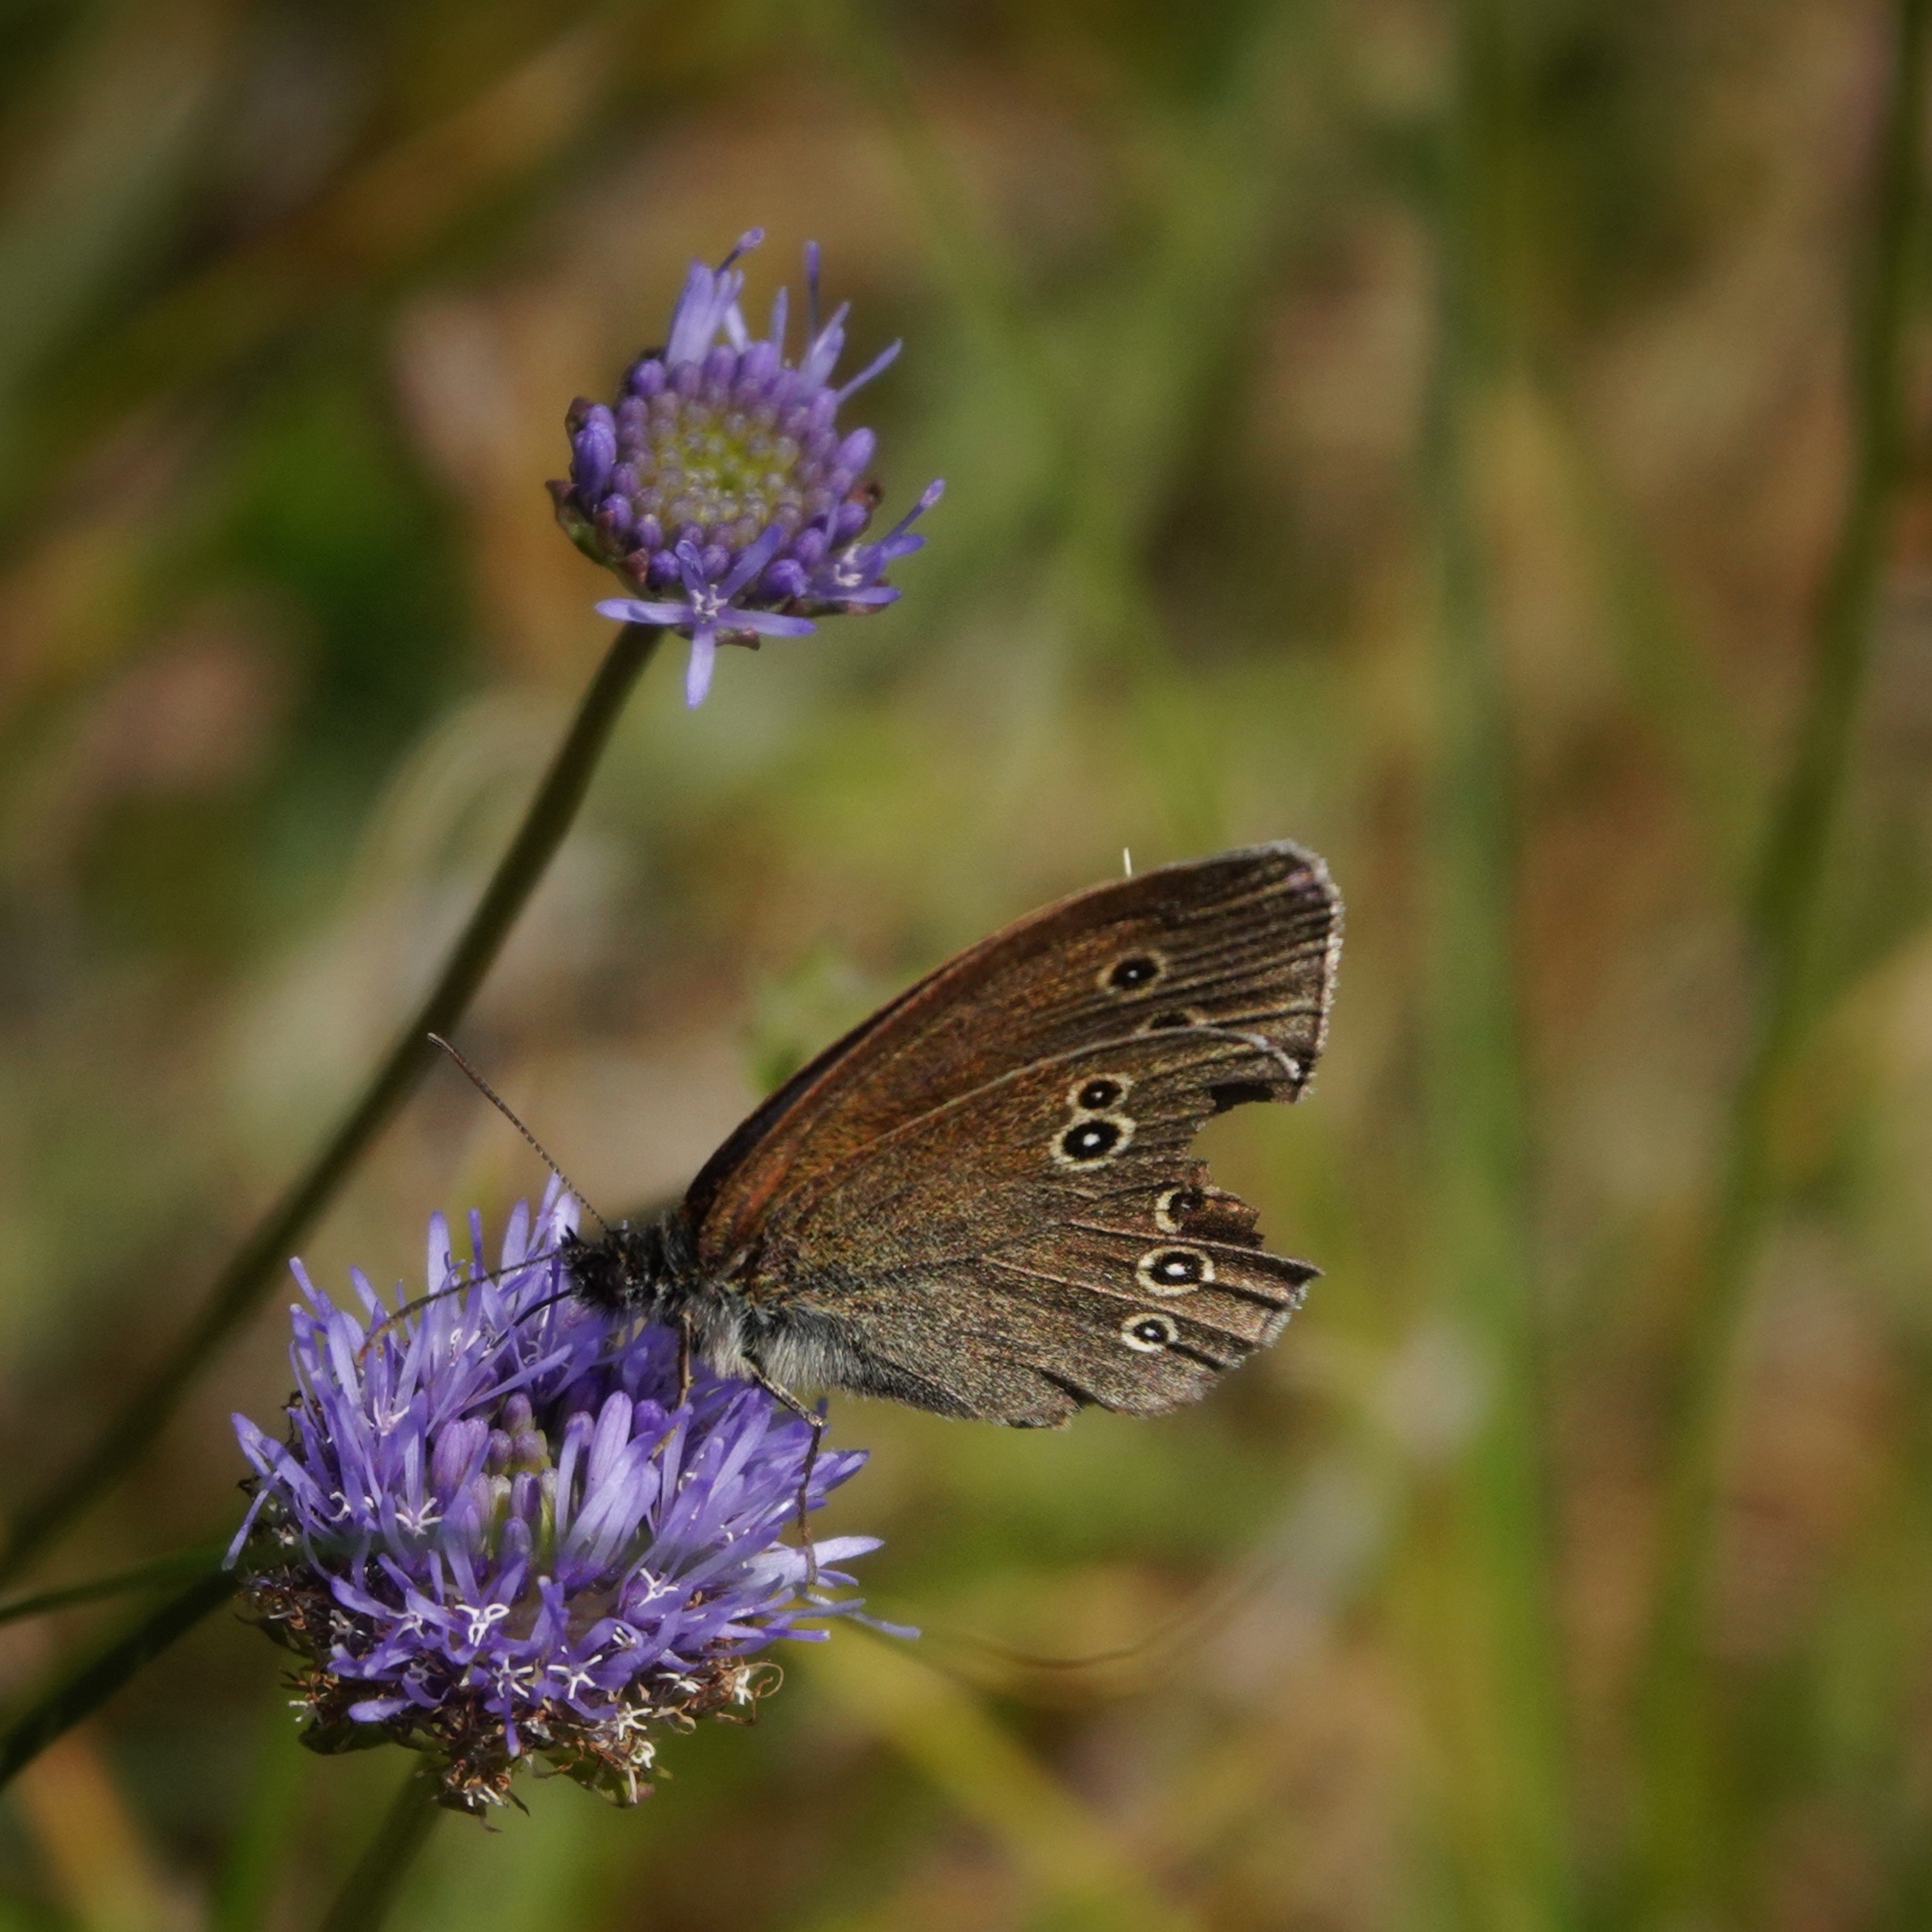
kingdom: Animalia
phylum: Arthropoda
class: Insecta
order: Lepidoptera
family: Nymphalidae
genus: Aphantopus
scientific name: Aphantopus hyperantus
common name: Ringlet
